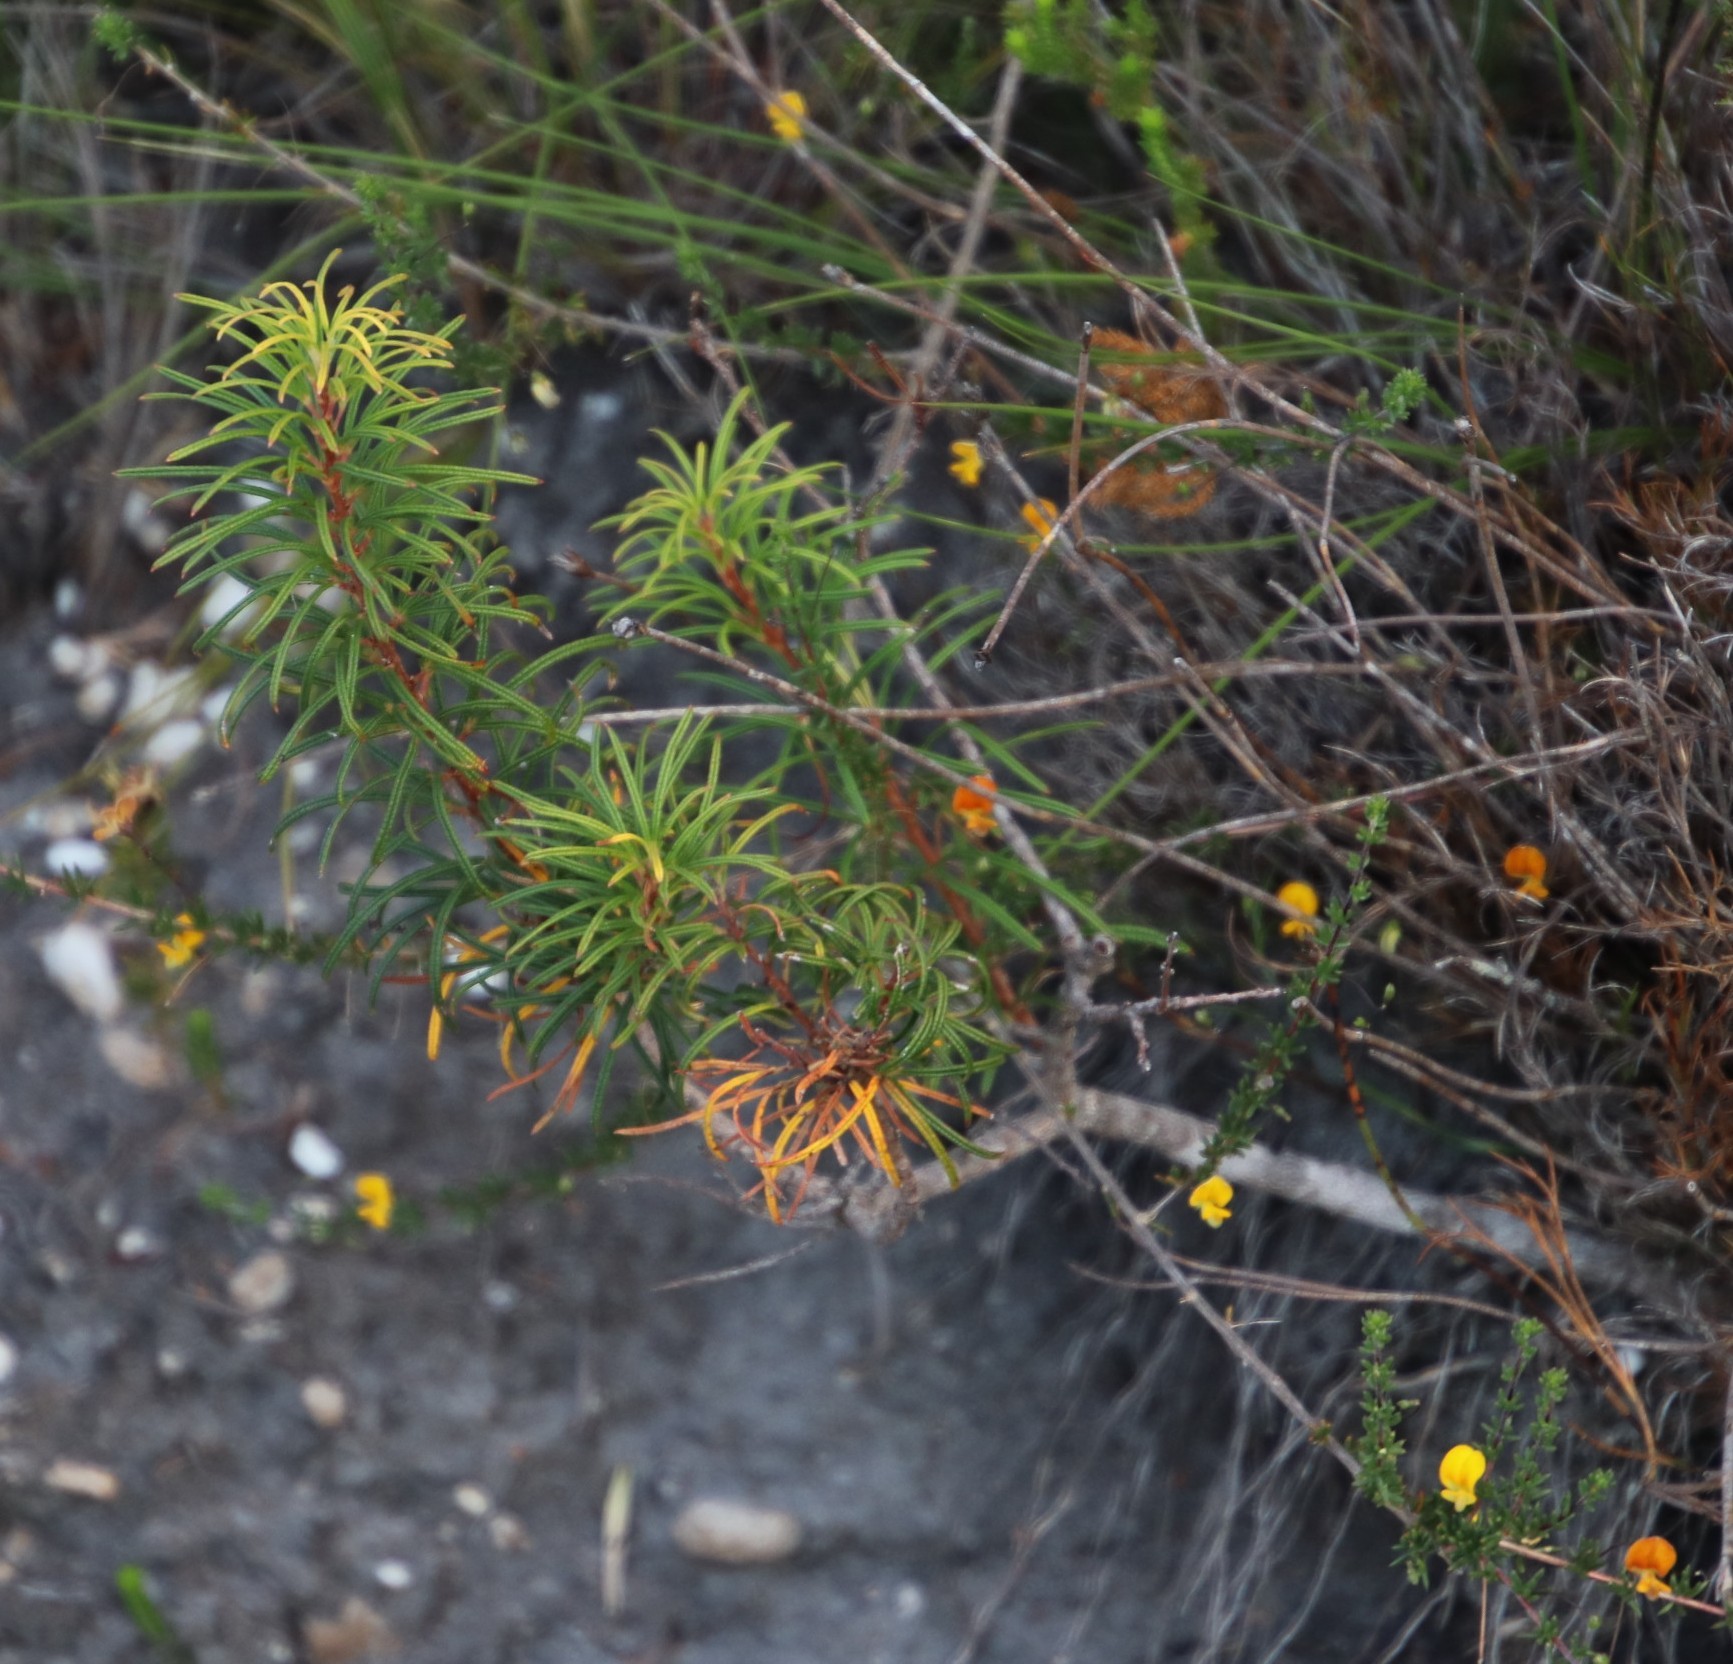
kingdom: Plantae
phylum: Tracheophyta
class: Magnoliopsida
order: Sapindales
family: Anacardiaceae
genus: Searsia
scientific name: Searsia rosmarinifolia
